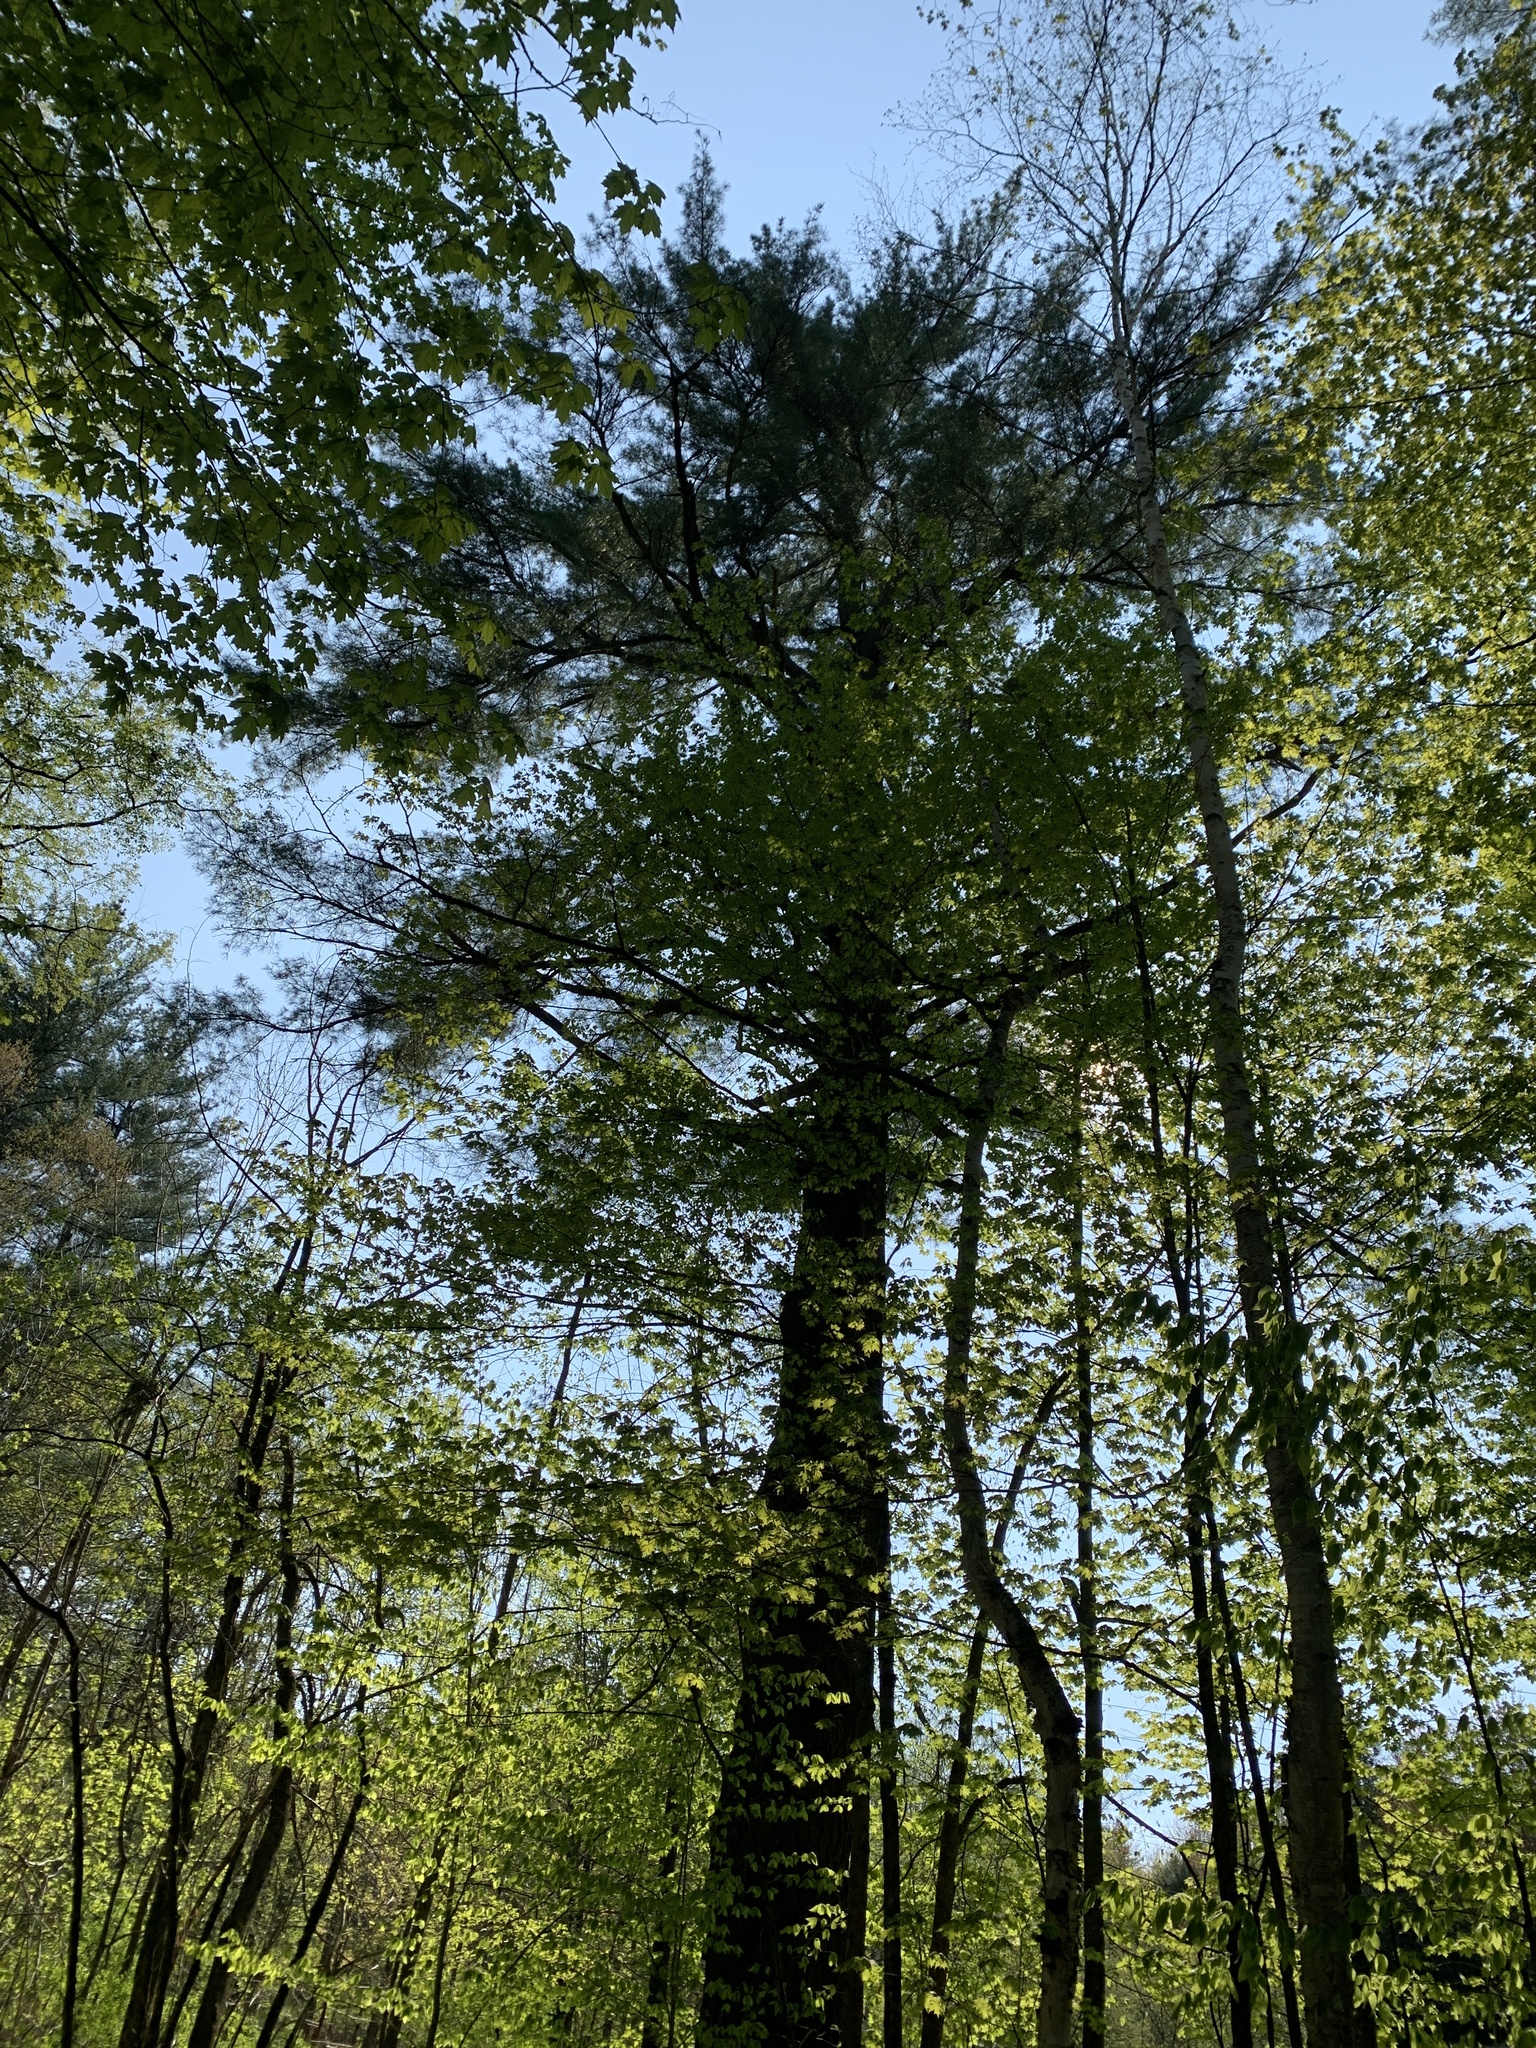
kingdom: Plantae
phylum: Tracheophyta
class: Pinopsida
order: Pinales
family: Pinaceae
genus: Pinus
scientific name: Pinus strobus
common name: Weymouth pine
